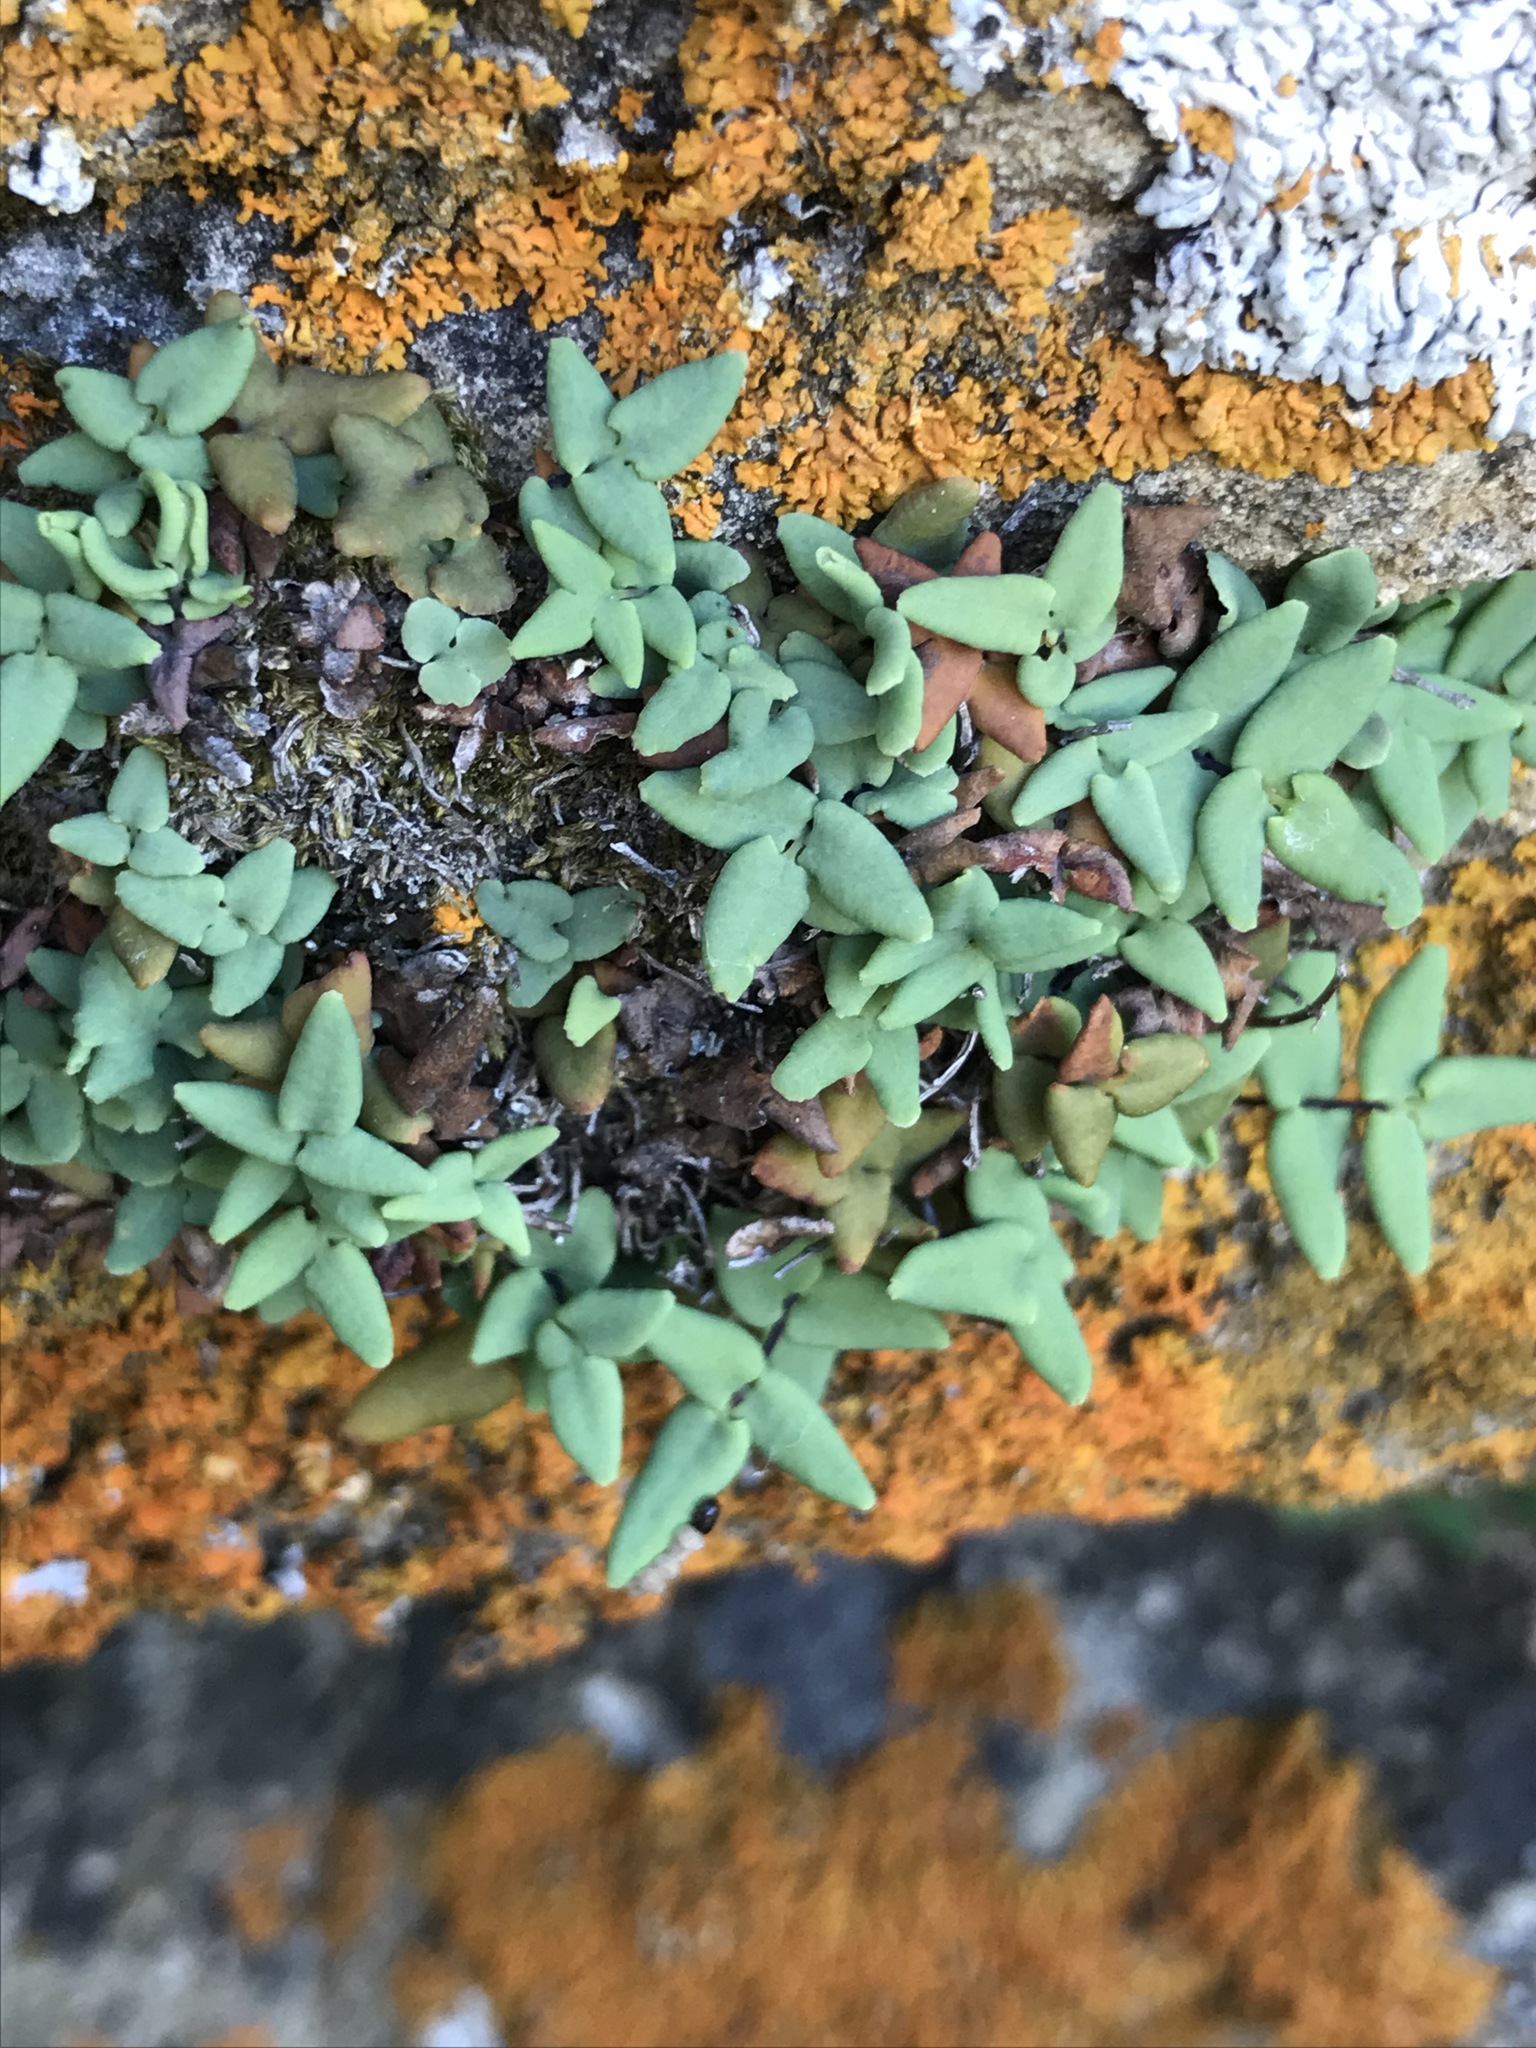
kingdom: Plantae
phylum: Tracheophyta
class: Polypodiopsida
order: Polypodiales
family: Pteridaceae
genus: Pellaea
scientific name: Pellaea glabella
